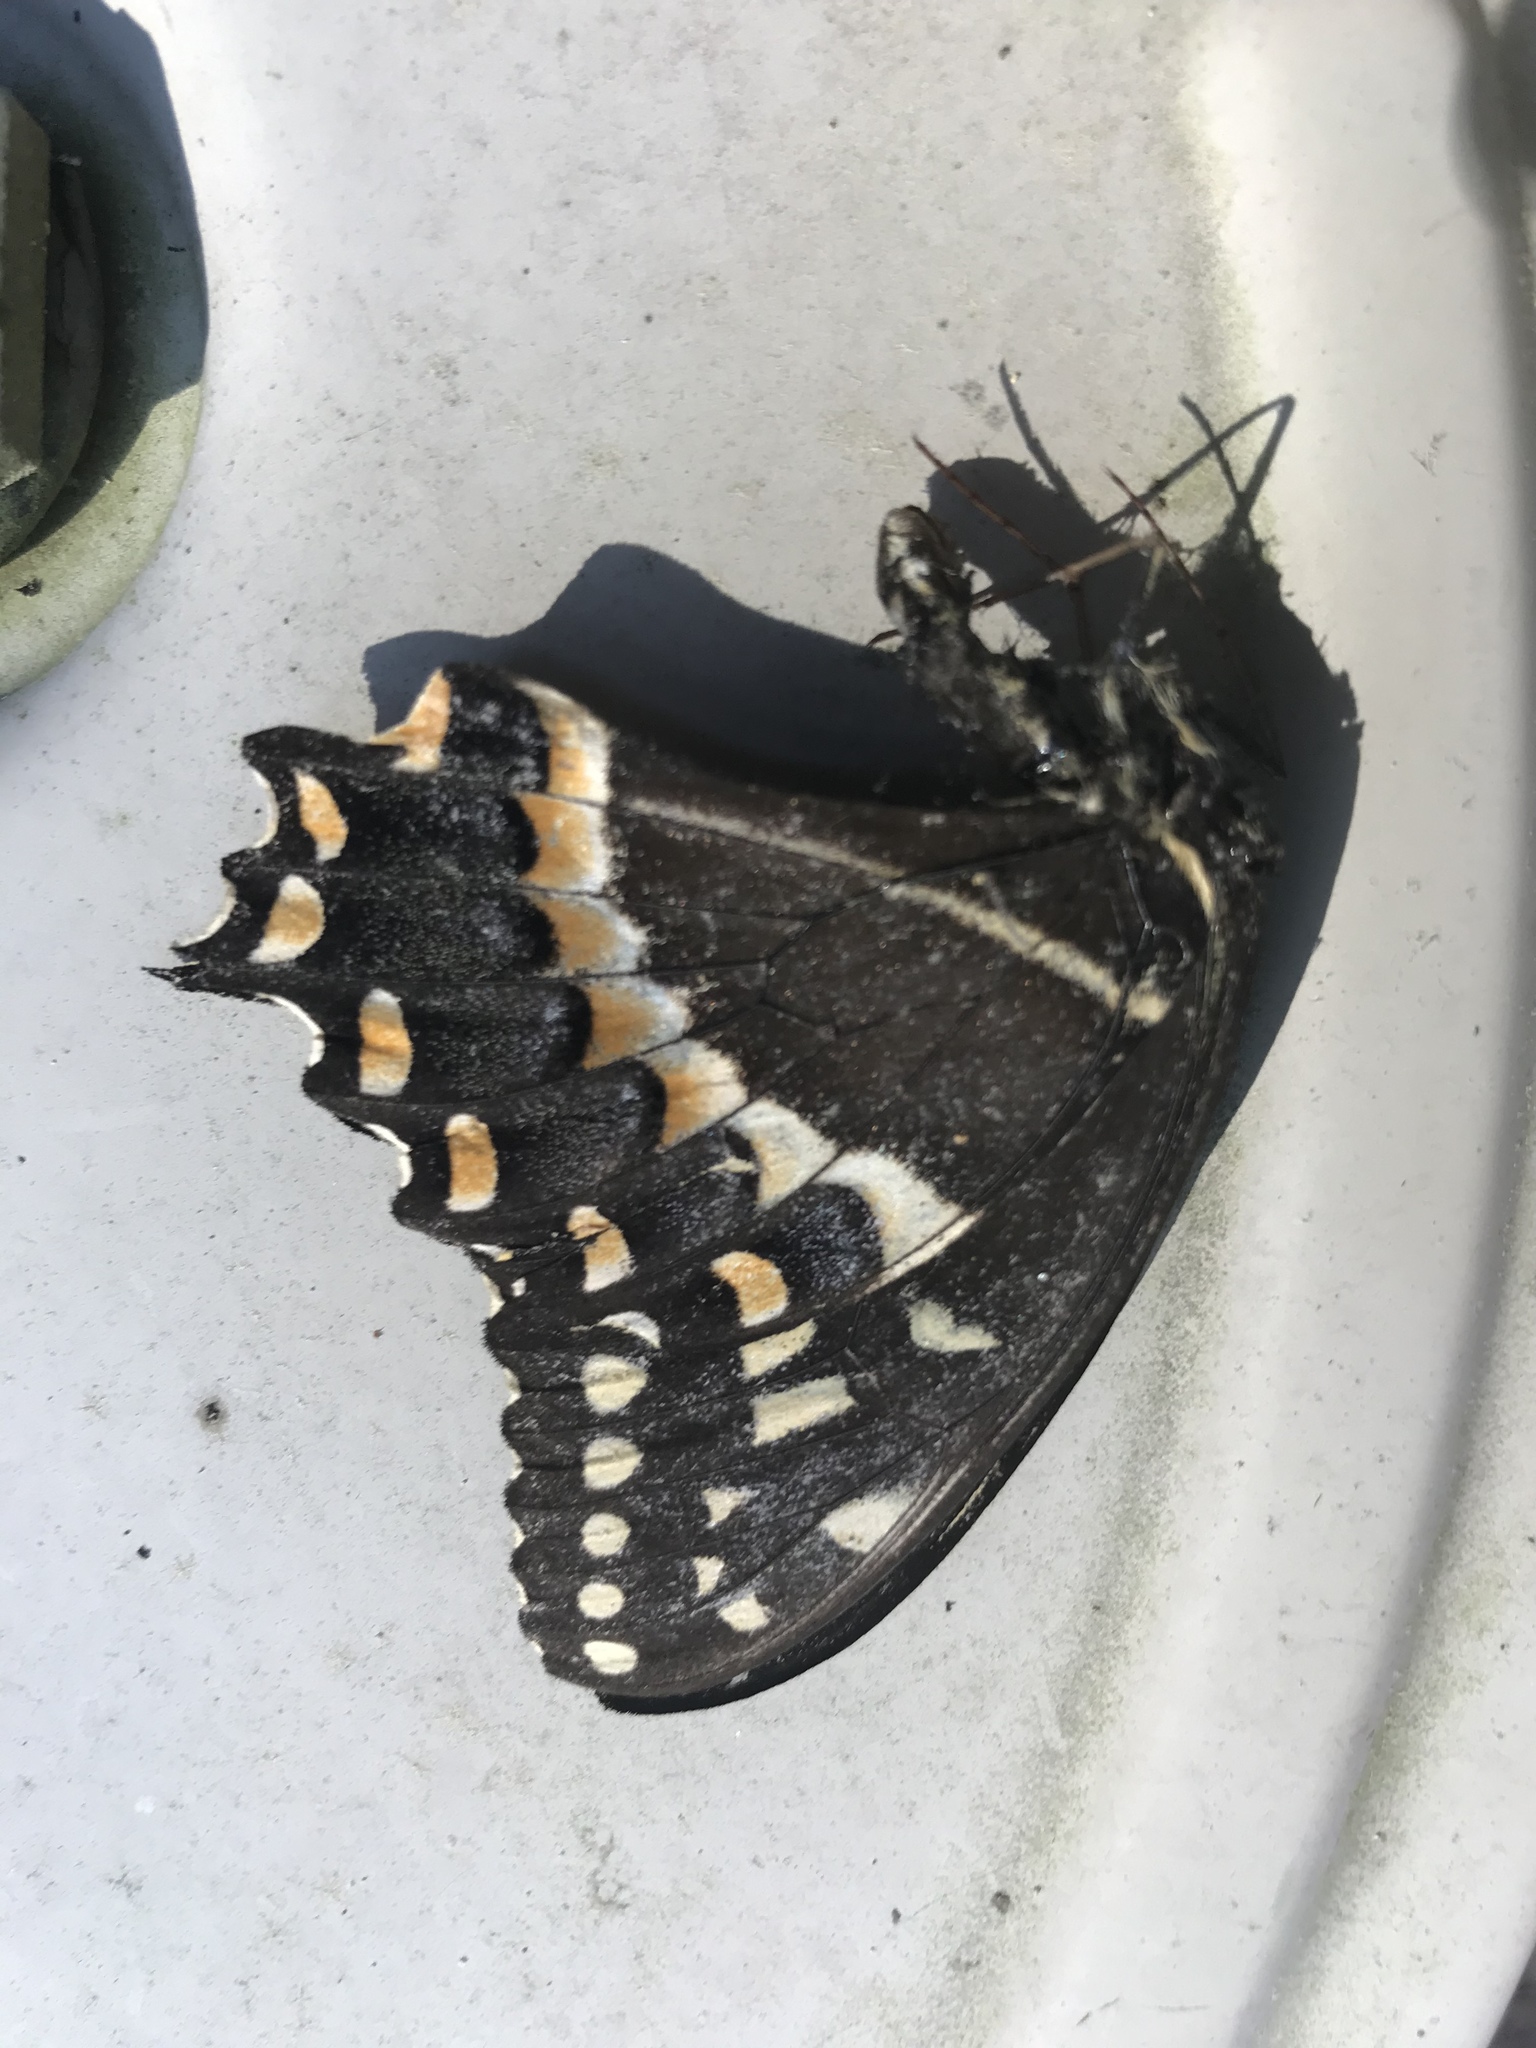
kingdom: Animalia
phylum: Arthropoda
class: Insecta
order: Lepidoptera
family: Papilionidae
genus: Papilio
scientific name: Papilio palamedes
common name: Palamedes swallowtail
